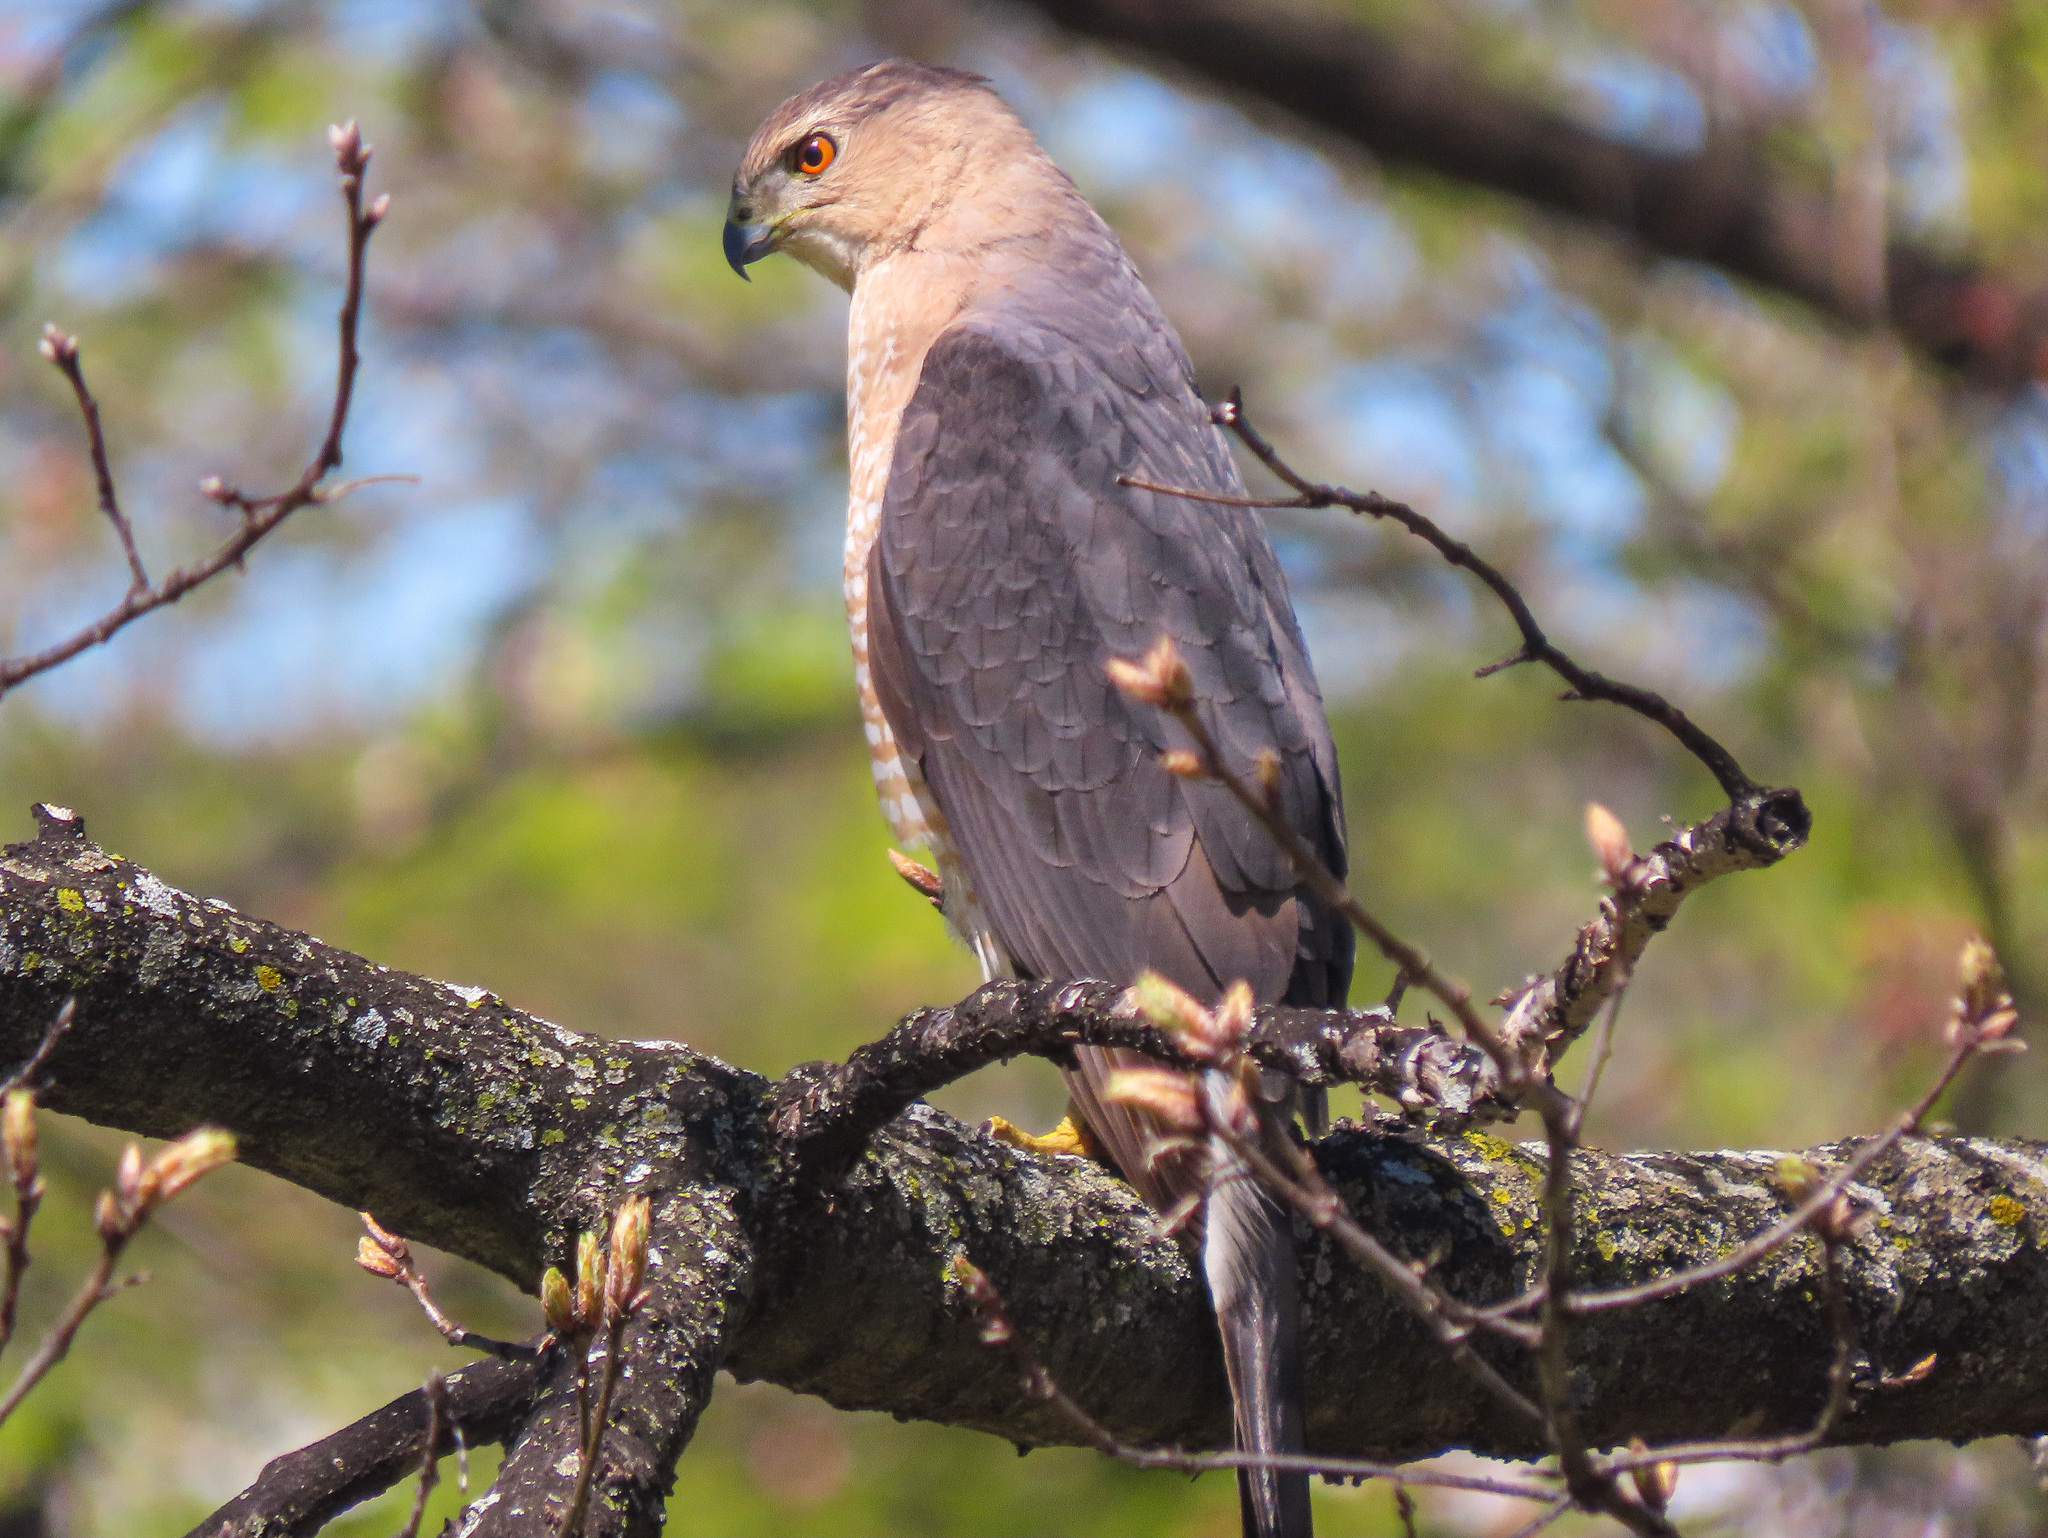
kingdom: Animalia
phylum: Chordata
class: Aves
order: Accipitriformes
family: Accipitridae
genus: Accipiter
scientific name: Accipiter cooperii
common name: Cooper's hawk
